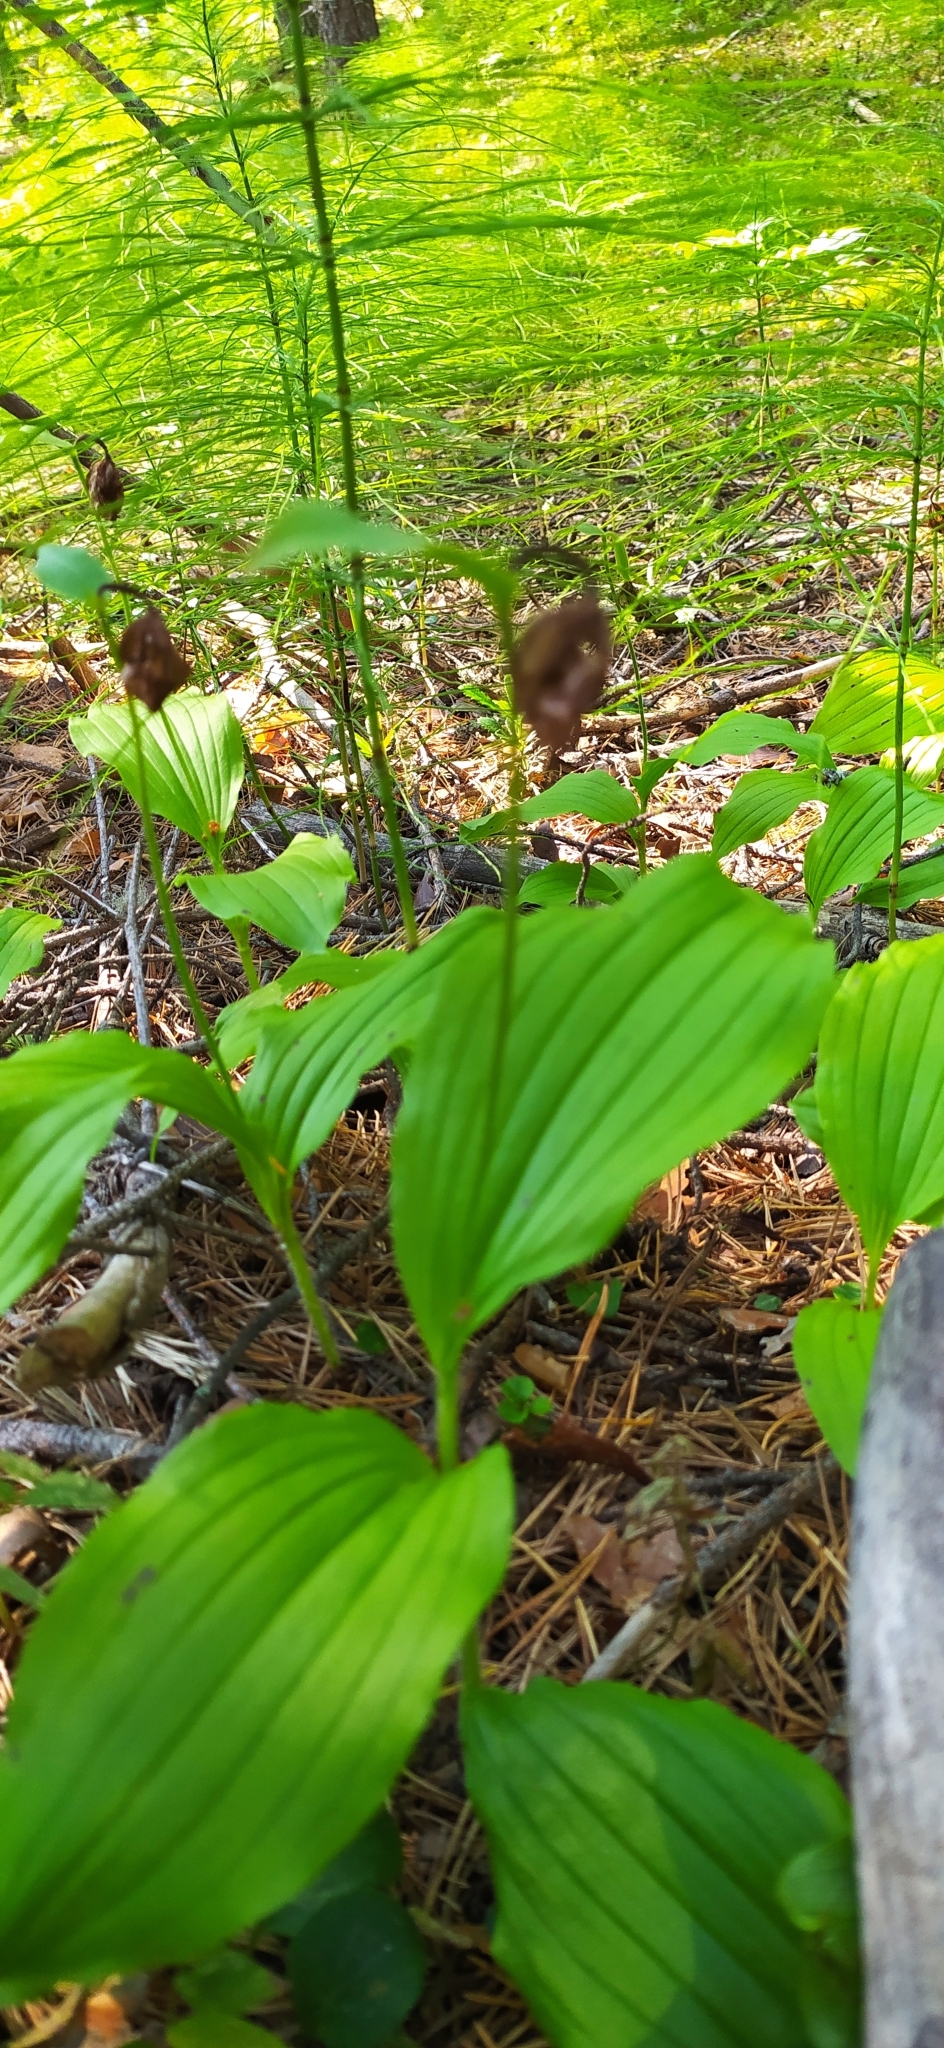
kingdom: Plantae
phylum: Tracheophyta
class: Liliopsida
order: Asparagales
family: Orchidaceae
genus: Cypripedium
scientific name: Cypripedium guttatum
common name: Pink lady slipper
